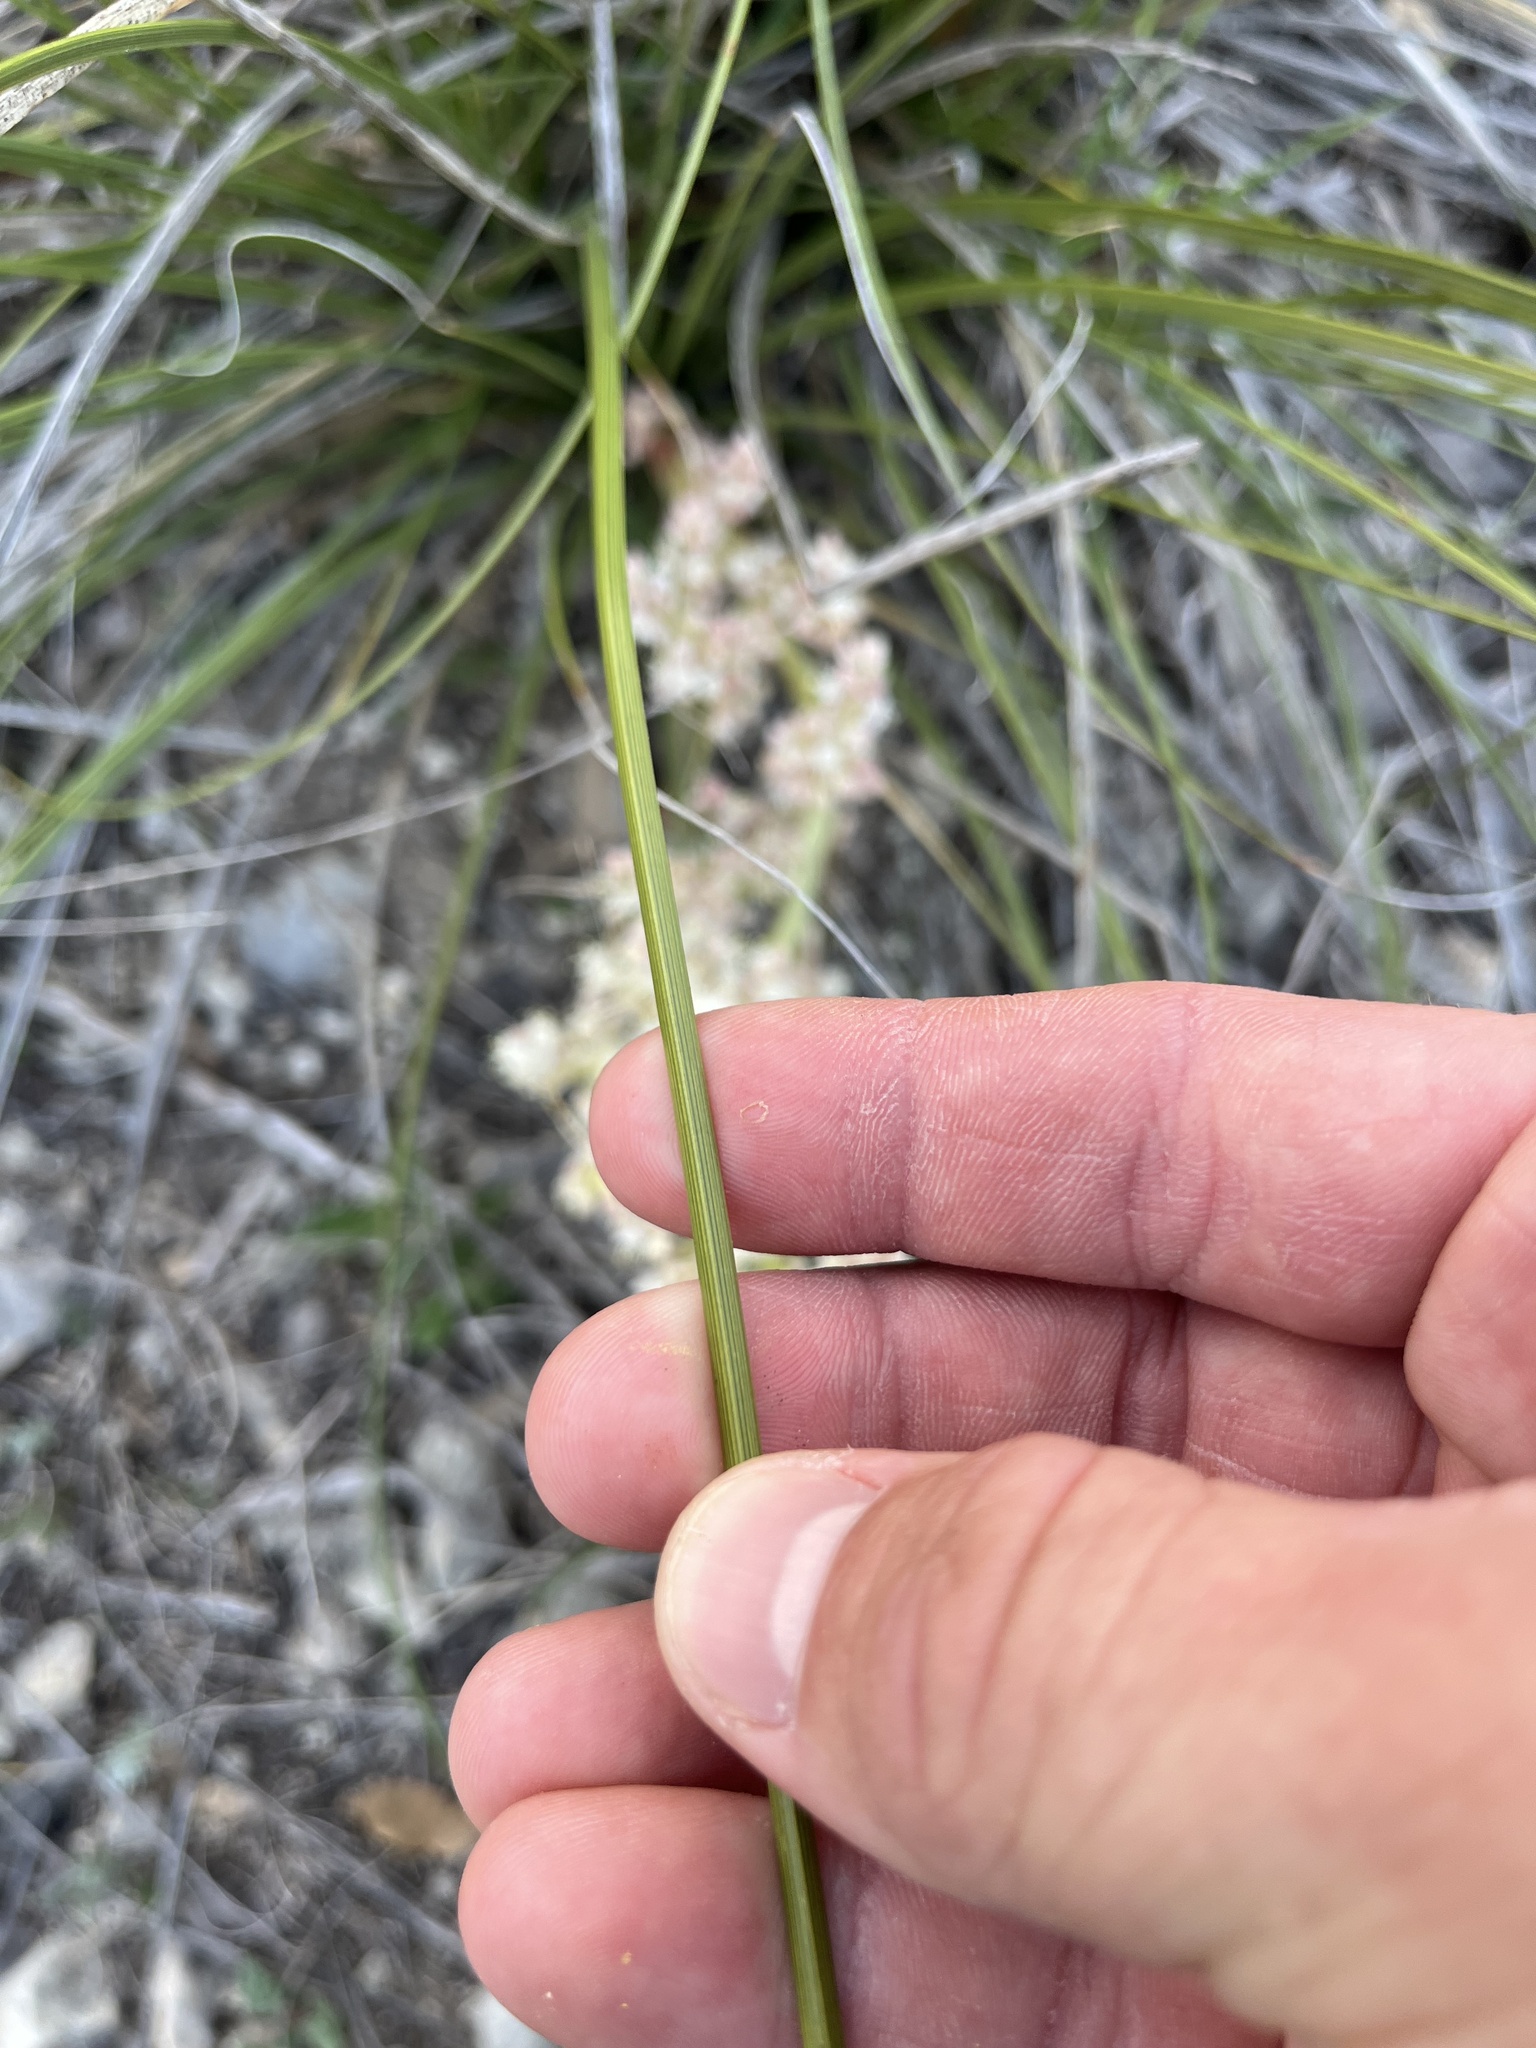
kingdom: Plantae
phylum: Tracheophyta
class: Liliopsida
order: Asparagales
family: Asparagaceae
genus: Nolina
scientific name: Nolina texana
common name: Texas sacahuiste
